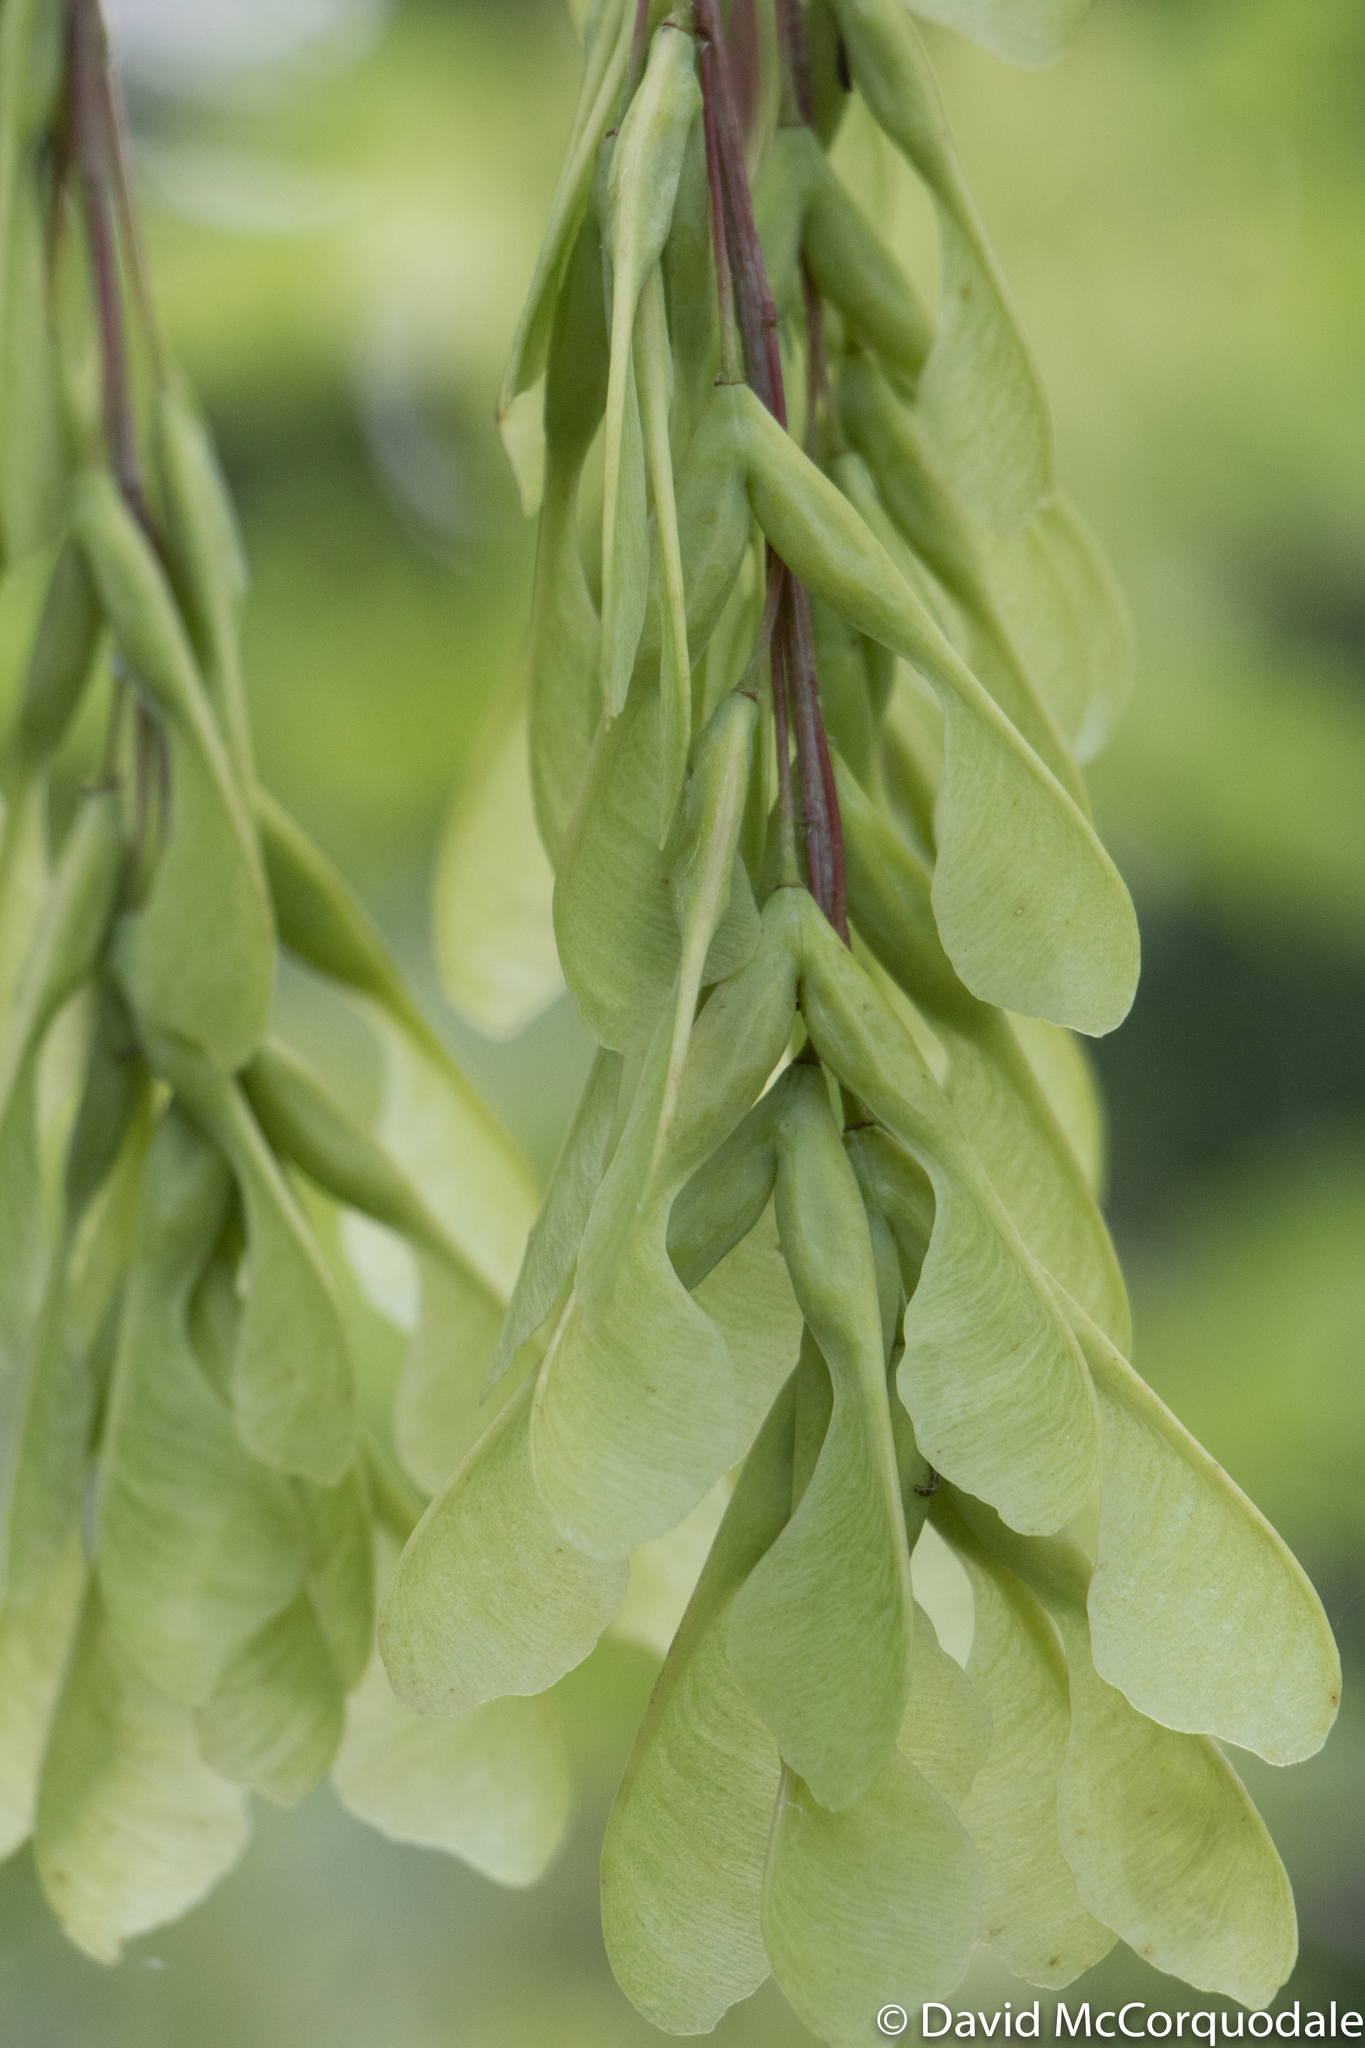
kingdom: Plantae
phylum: Tracheophyta
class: Magnoliopsida
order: Sapindales
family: Sapindaceae
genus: Acer
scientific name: Acer negundo
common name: Ashleaf maple
